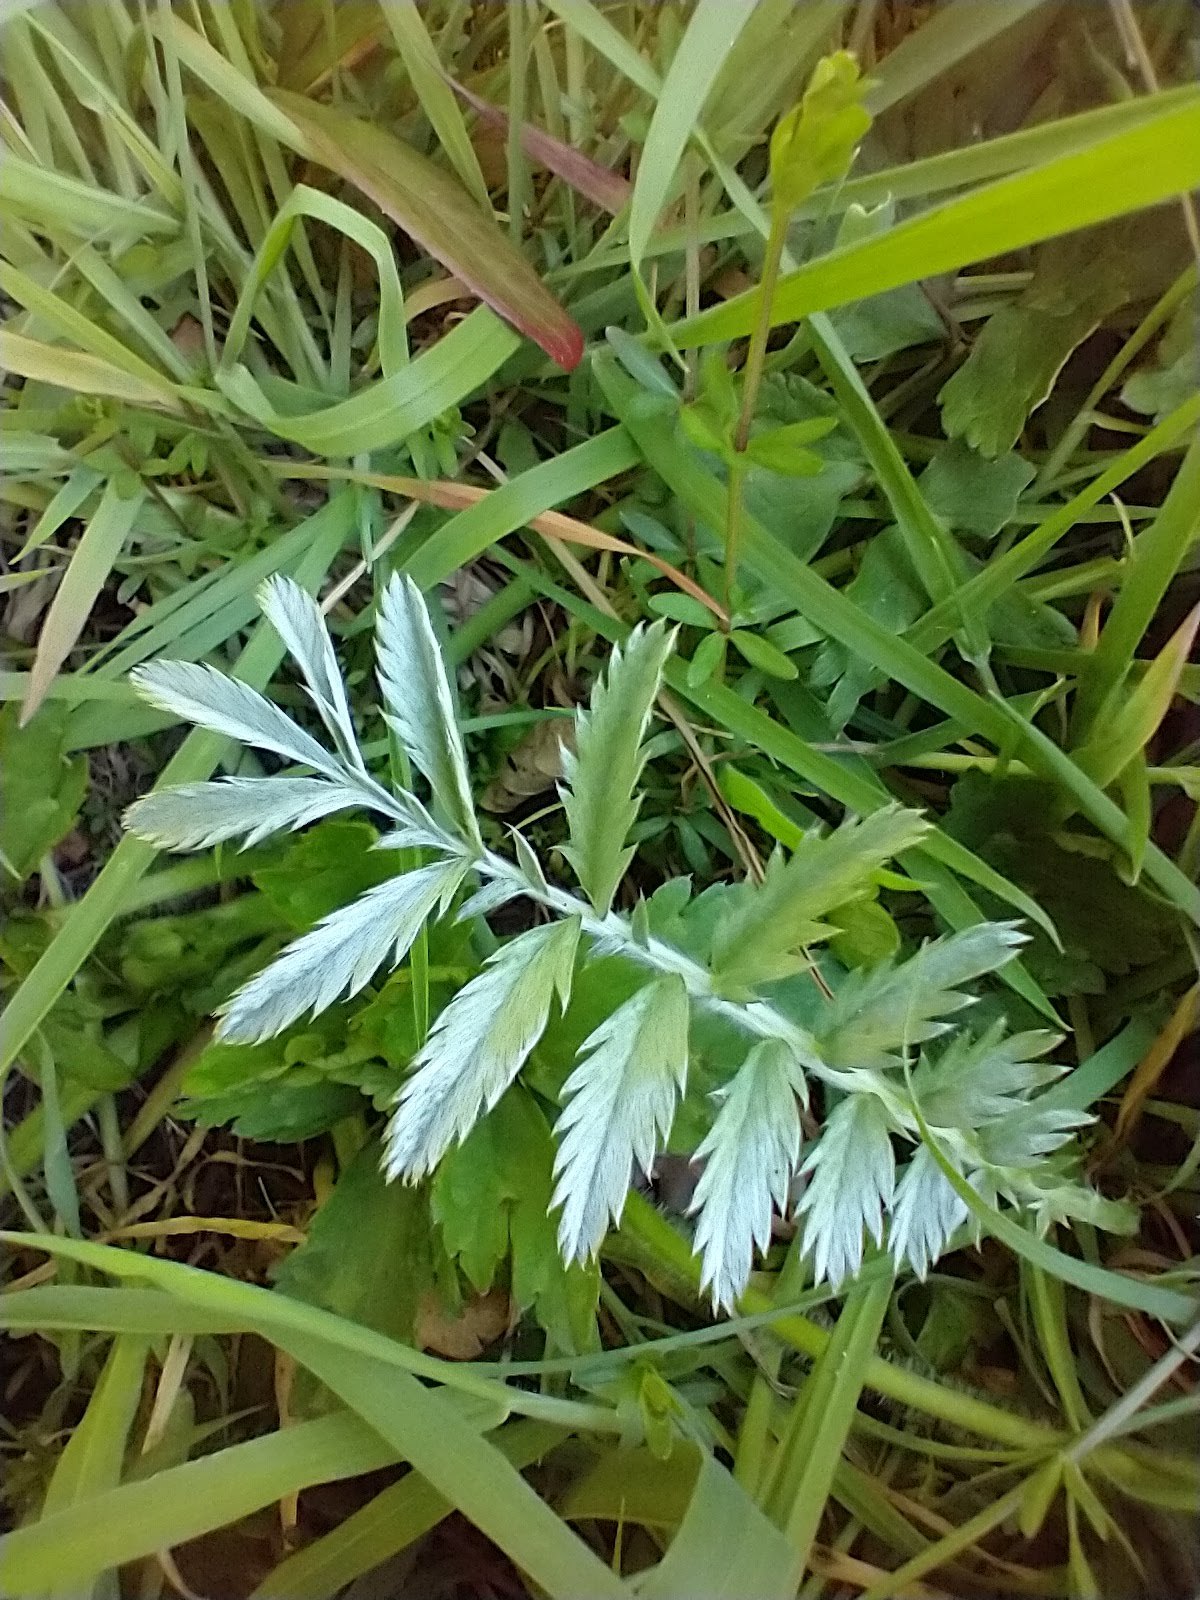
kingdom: Plantae
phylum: Tracheophyta
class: Magnoliopsida
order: Rosales
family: Rosaceae
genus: Argentina
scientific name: Argentina anserina
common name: Common silverweed
